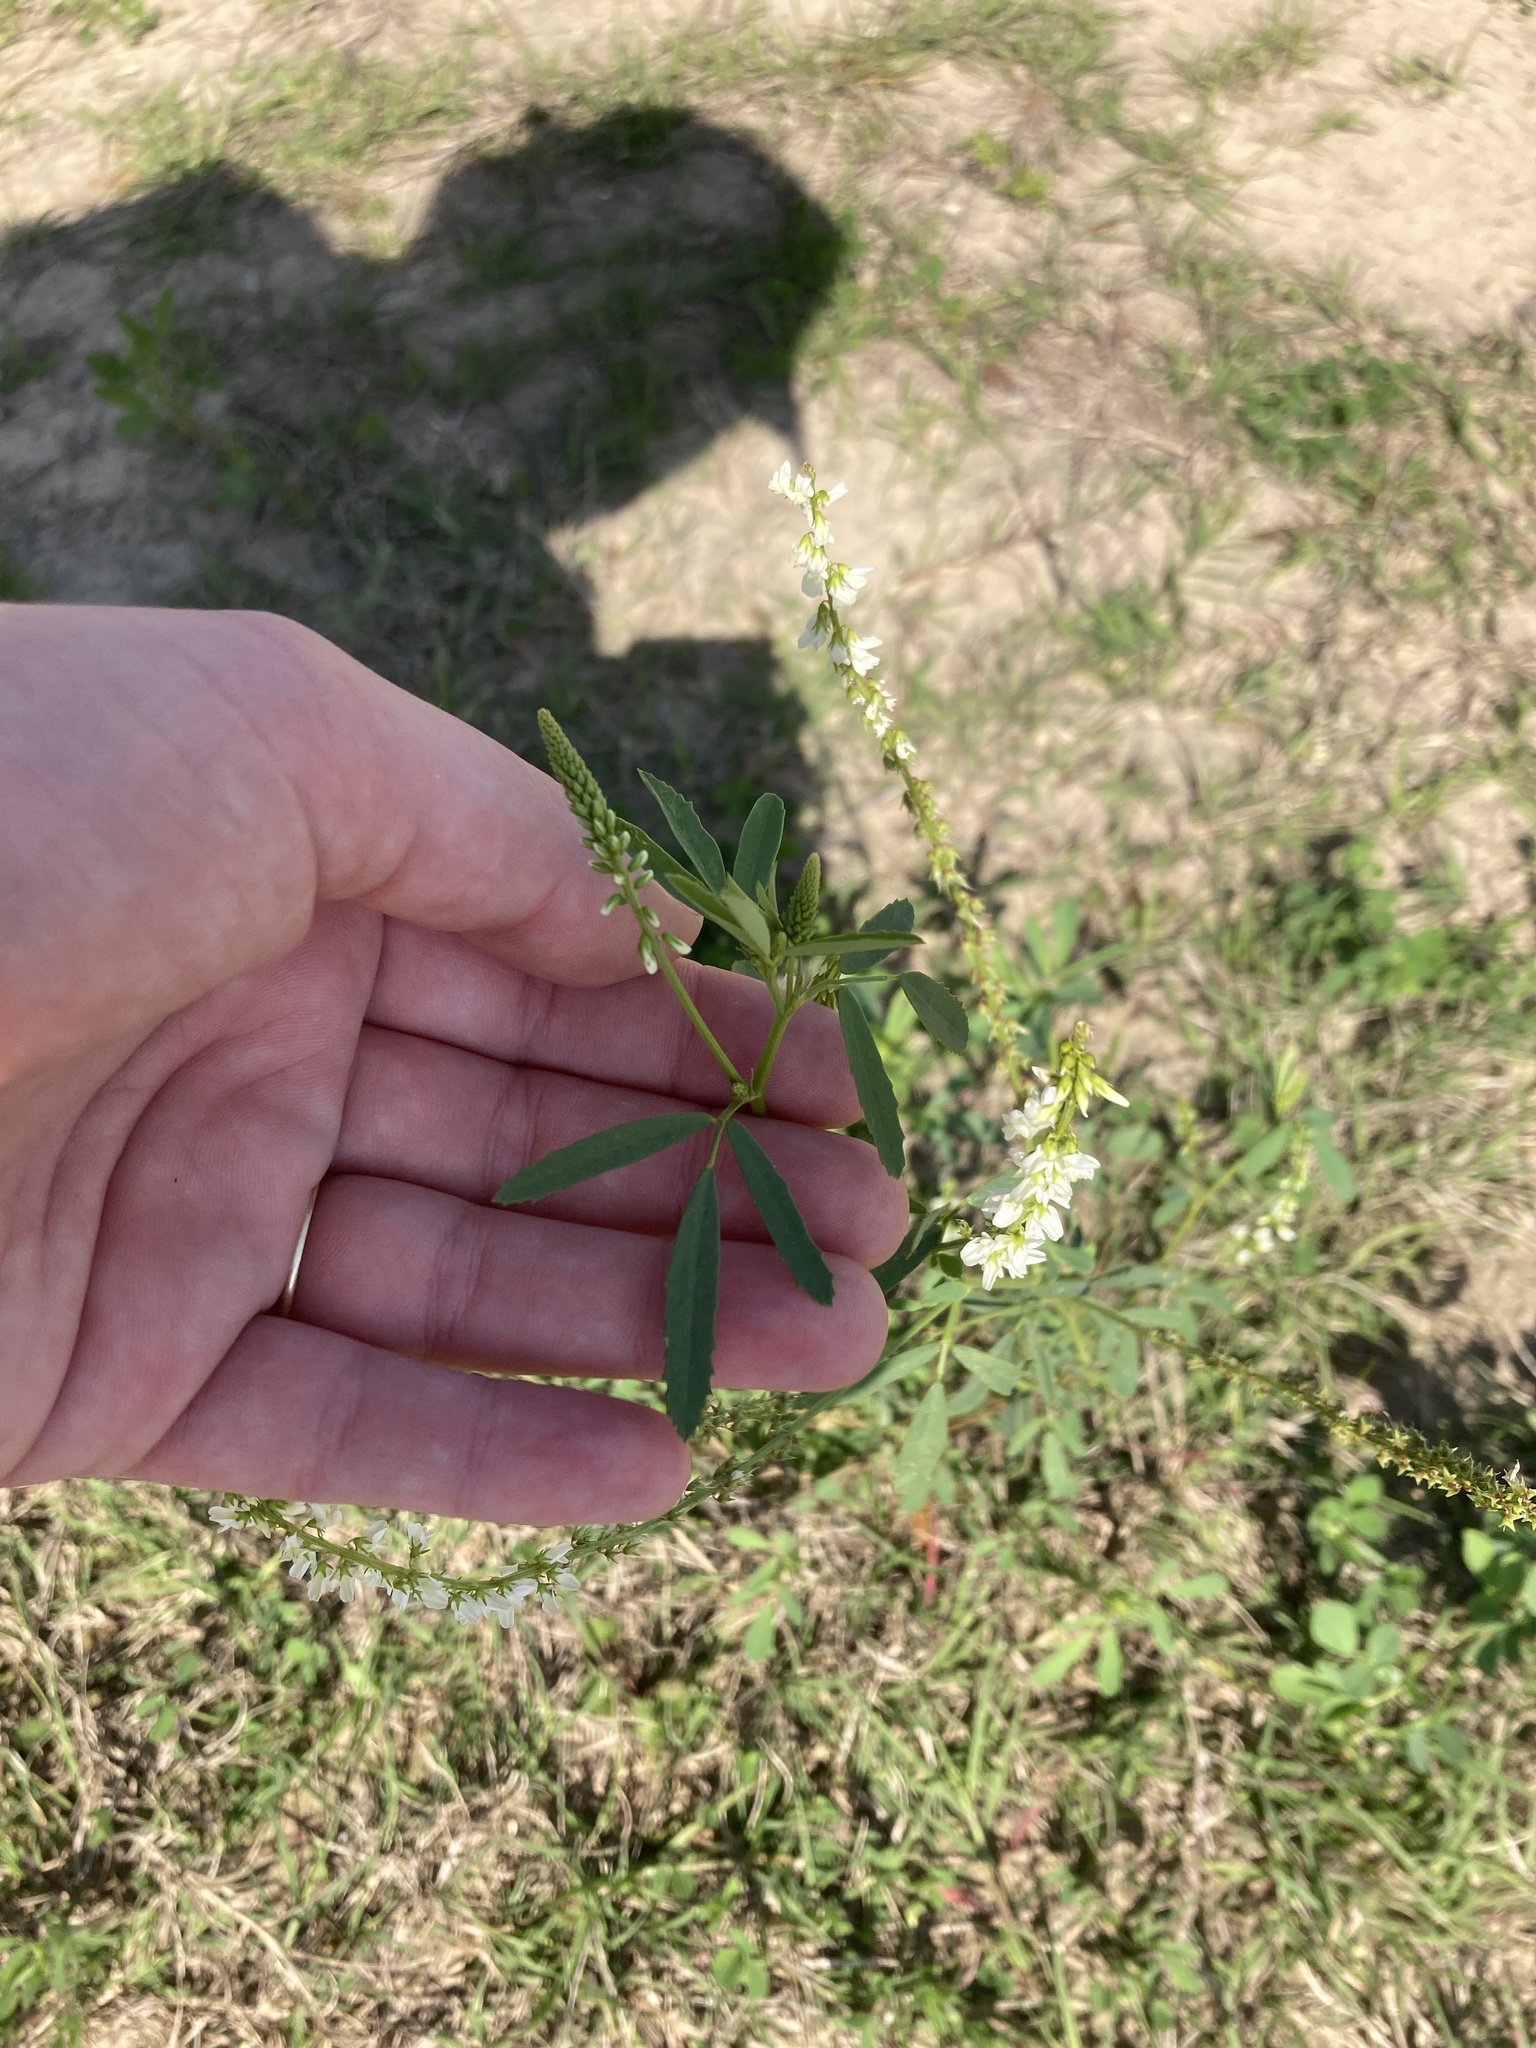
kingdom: Plantae
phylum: Tracheophyta
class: Magnoliopsida
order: Fabales
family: Fabaceae
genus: Melilotus
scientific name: Melilotus albus
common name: White melilot
